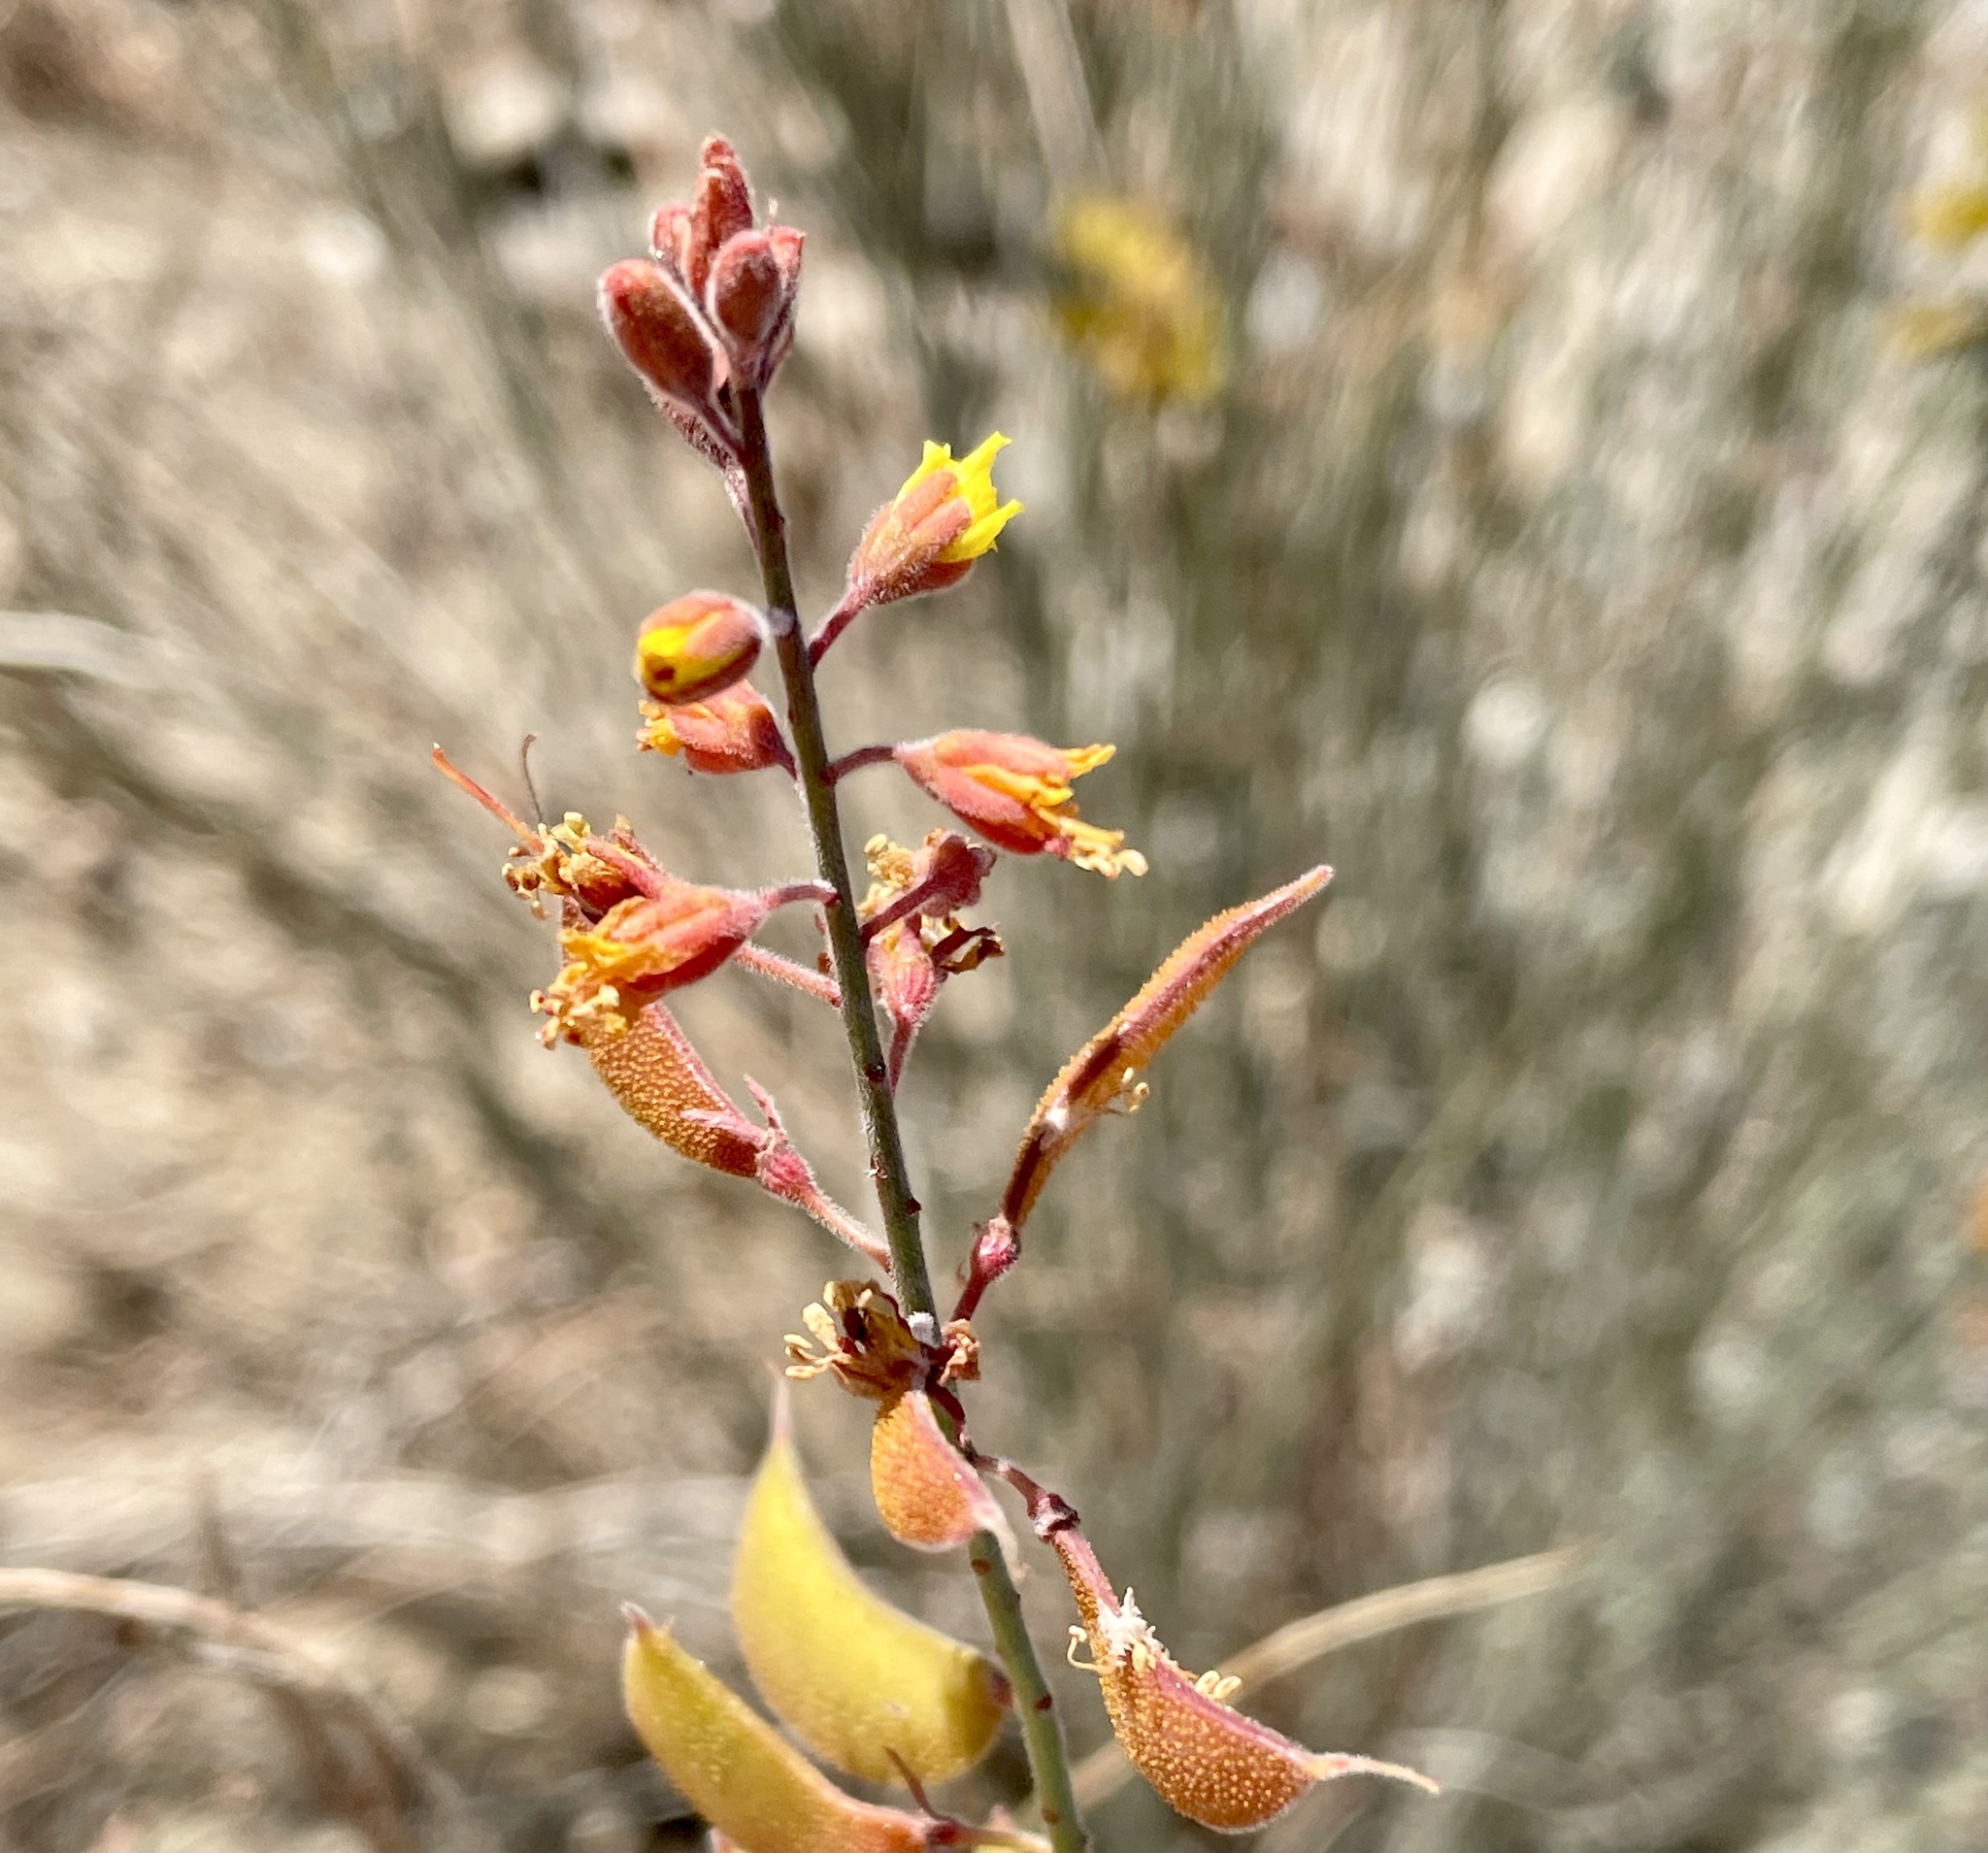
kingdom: Plantae
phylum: Tracheophyta
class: Magnoliopsida
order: Fabales
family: Fabaceae
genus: Hoffmannseggia
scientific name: Hoffmannseggia microphylla
